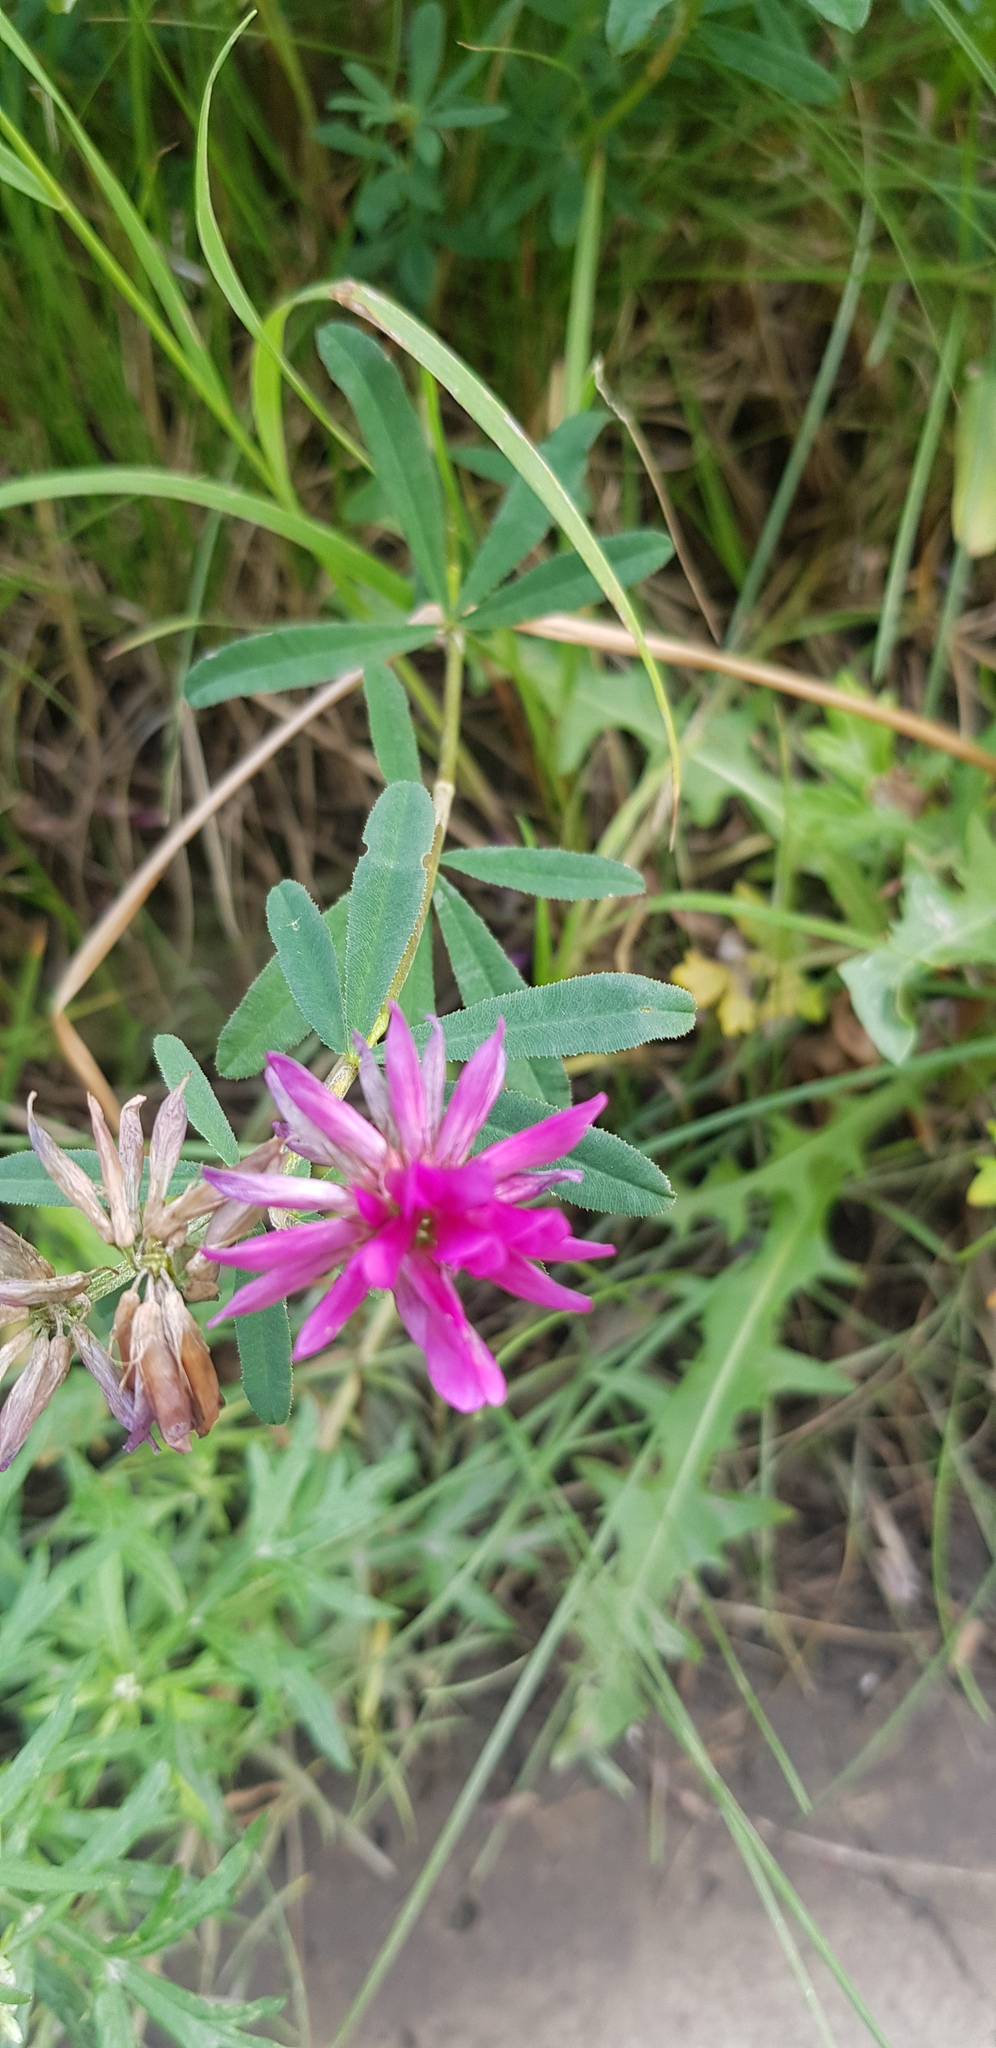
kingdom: Plantae
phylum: Tracheophyta
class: Magnoliopsida
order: Fabales
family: Fabaceae
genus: Trifolium
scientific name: Trifolium lupinaster
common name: Lupine clover
